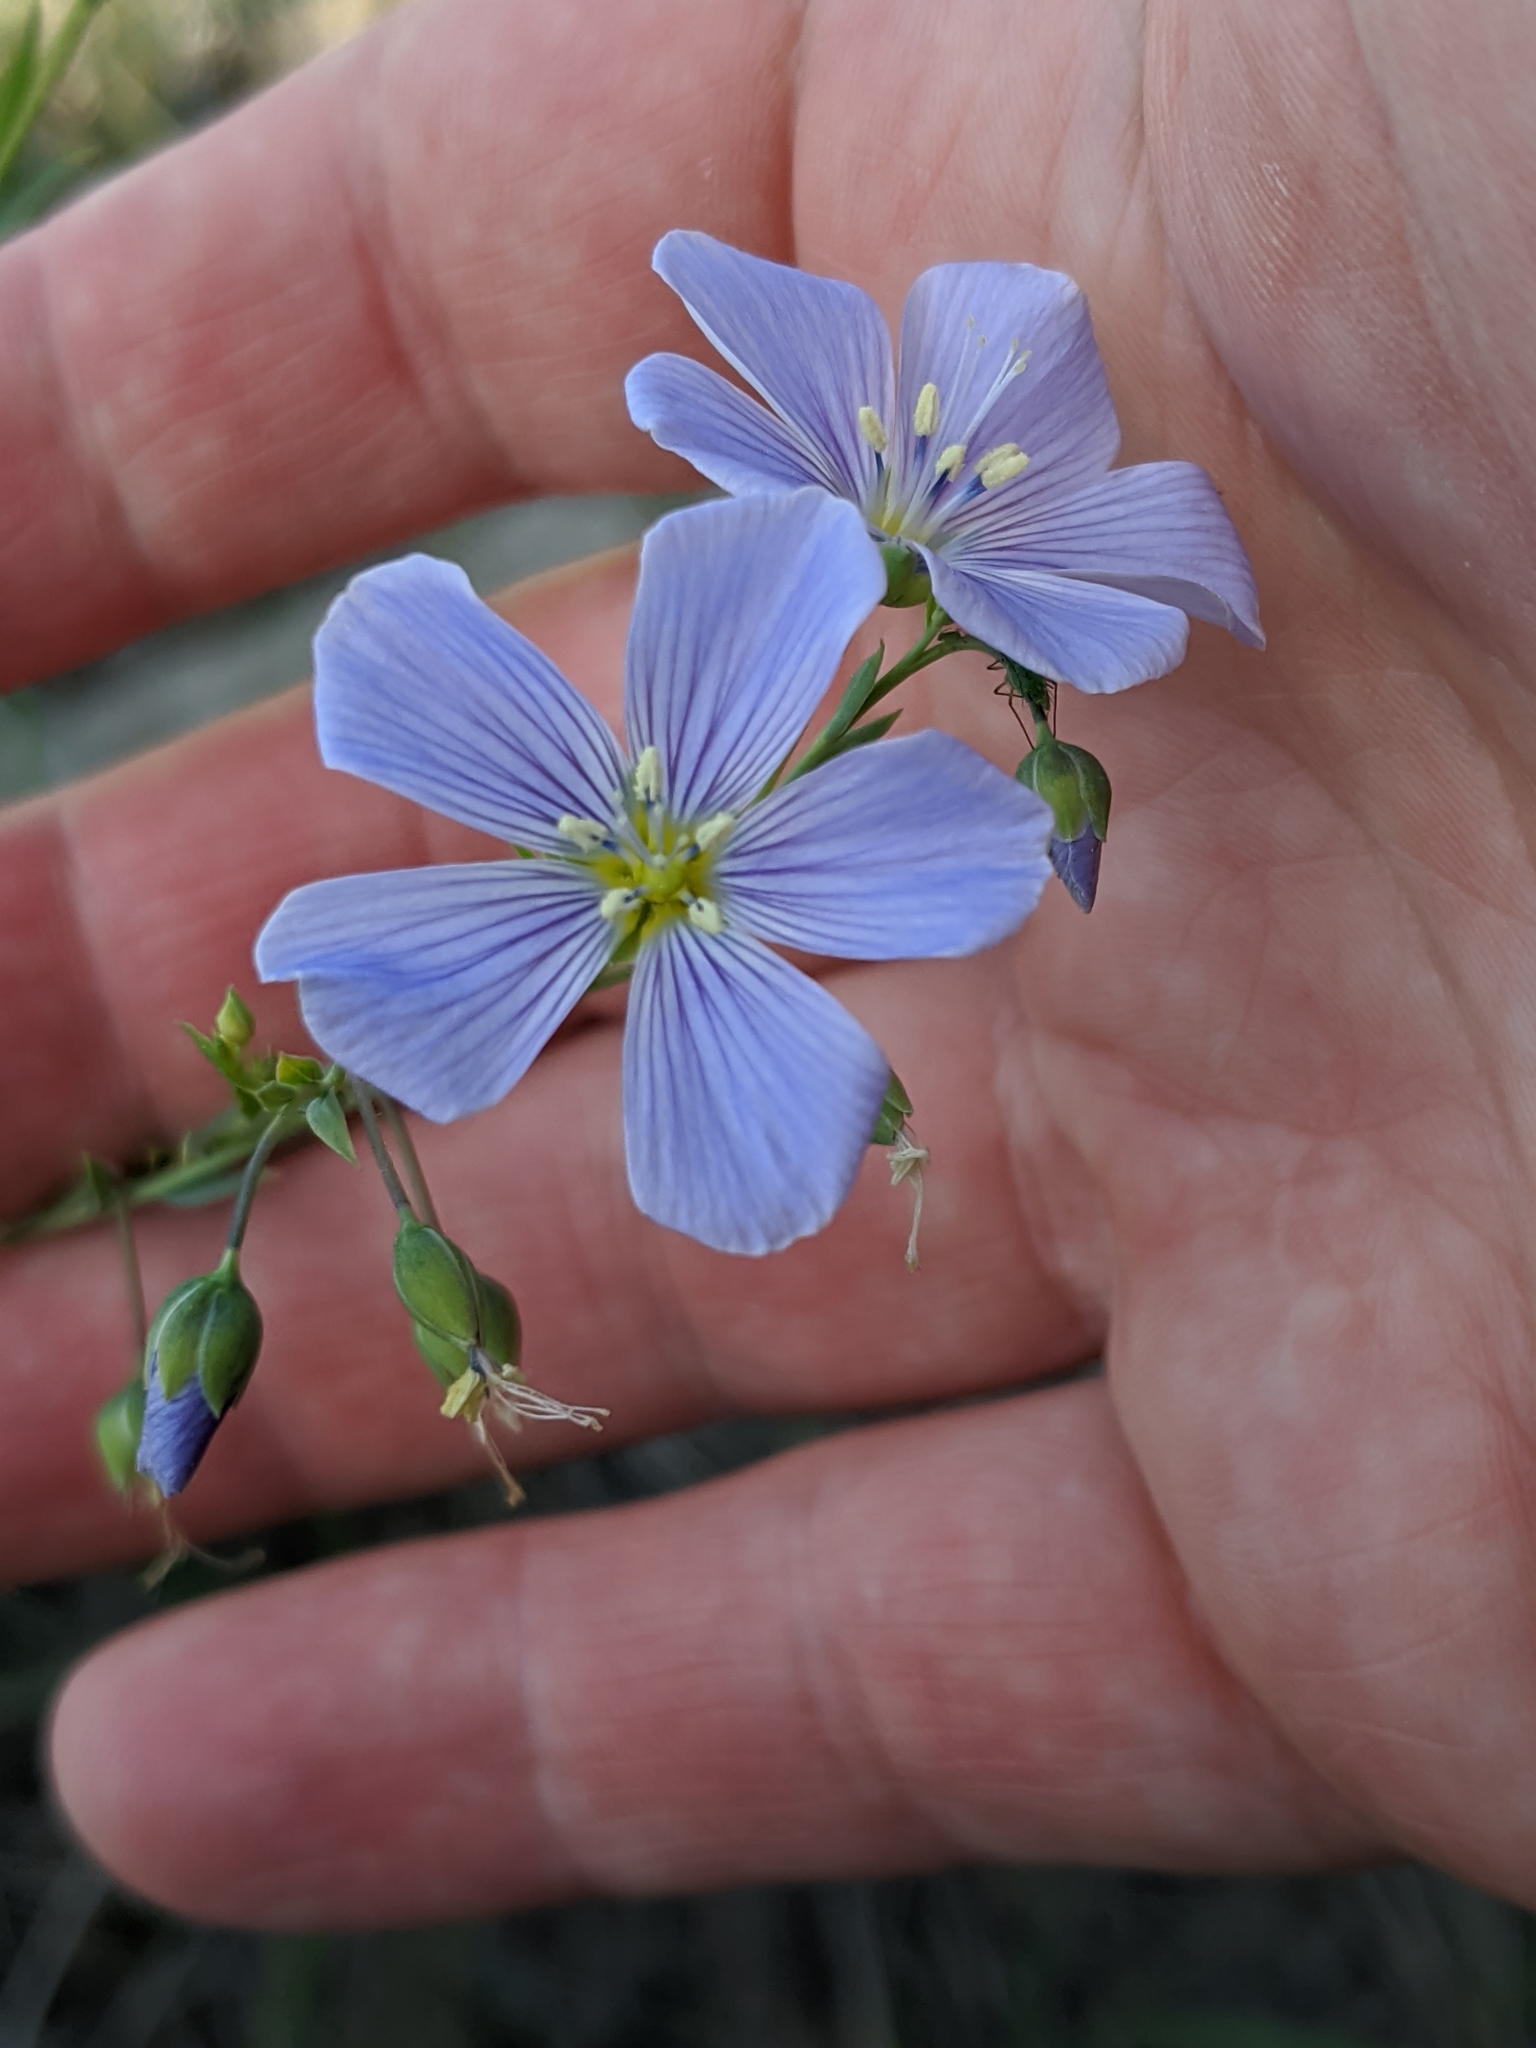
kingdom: Plantae
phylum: Tracheophyta
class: Magnoliopsida
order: Malpighiales
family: Linaceae
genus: Linum
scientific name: Linum lewisii
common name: Prairie flax
